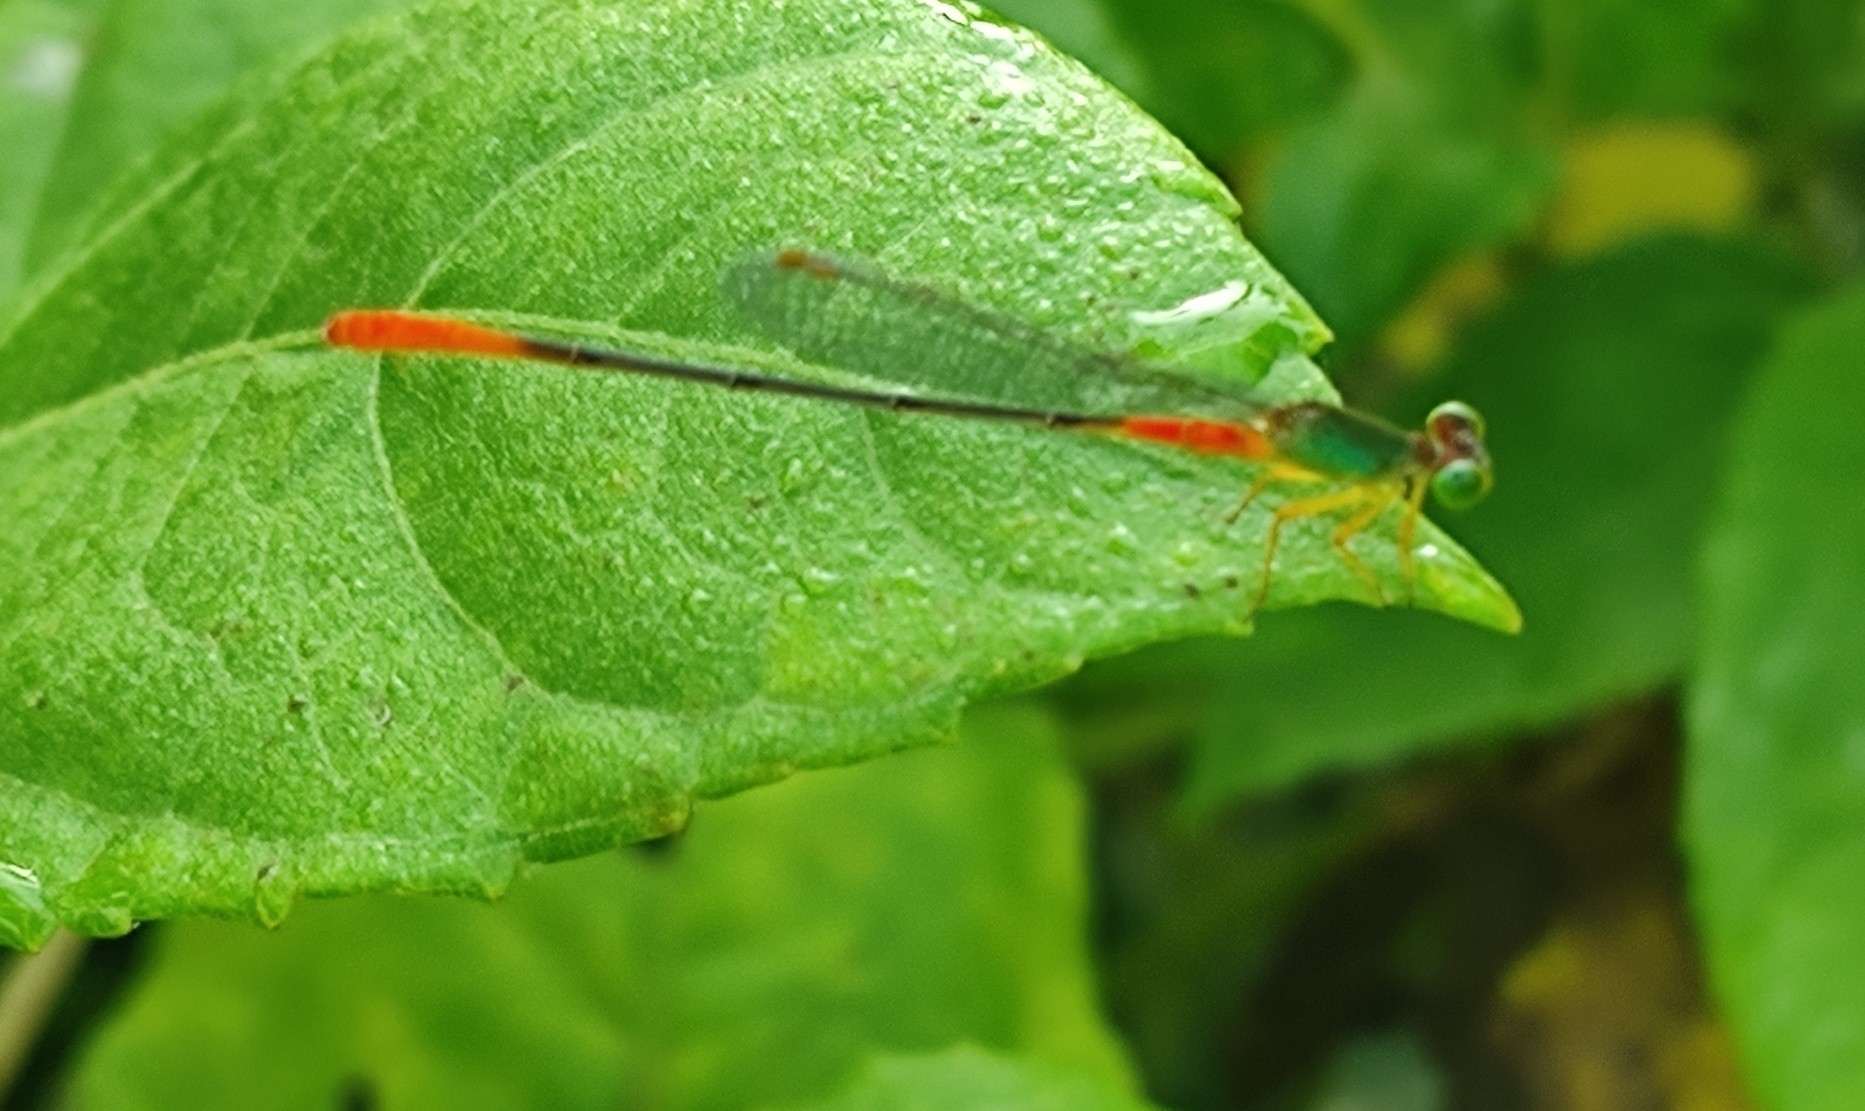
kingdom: Animalia
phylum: Arthropoda
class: Insecta
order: Odonata
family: Coenagrionidae
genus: Ceriagrion
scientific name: Ceriagrion cerinorubellum
